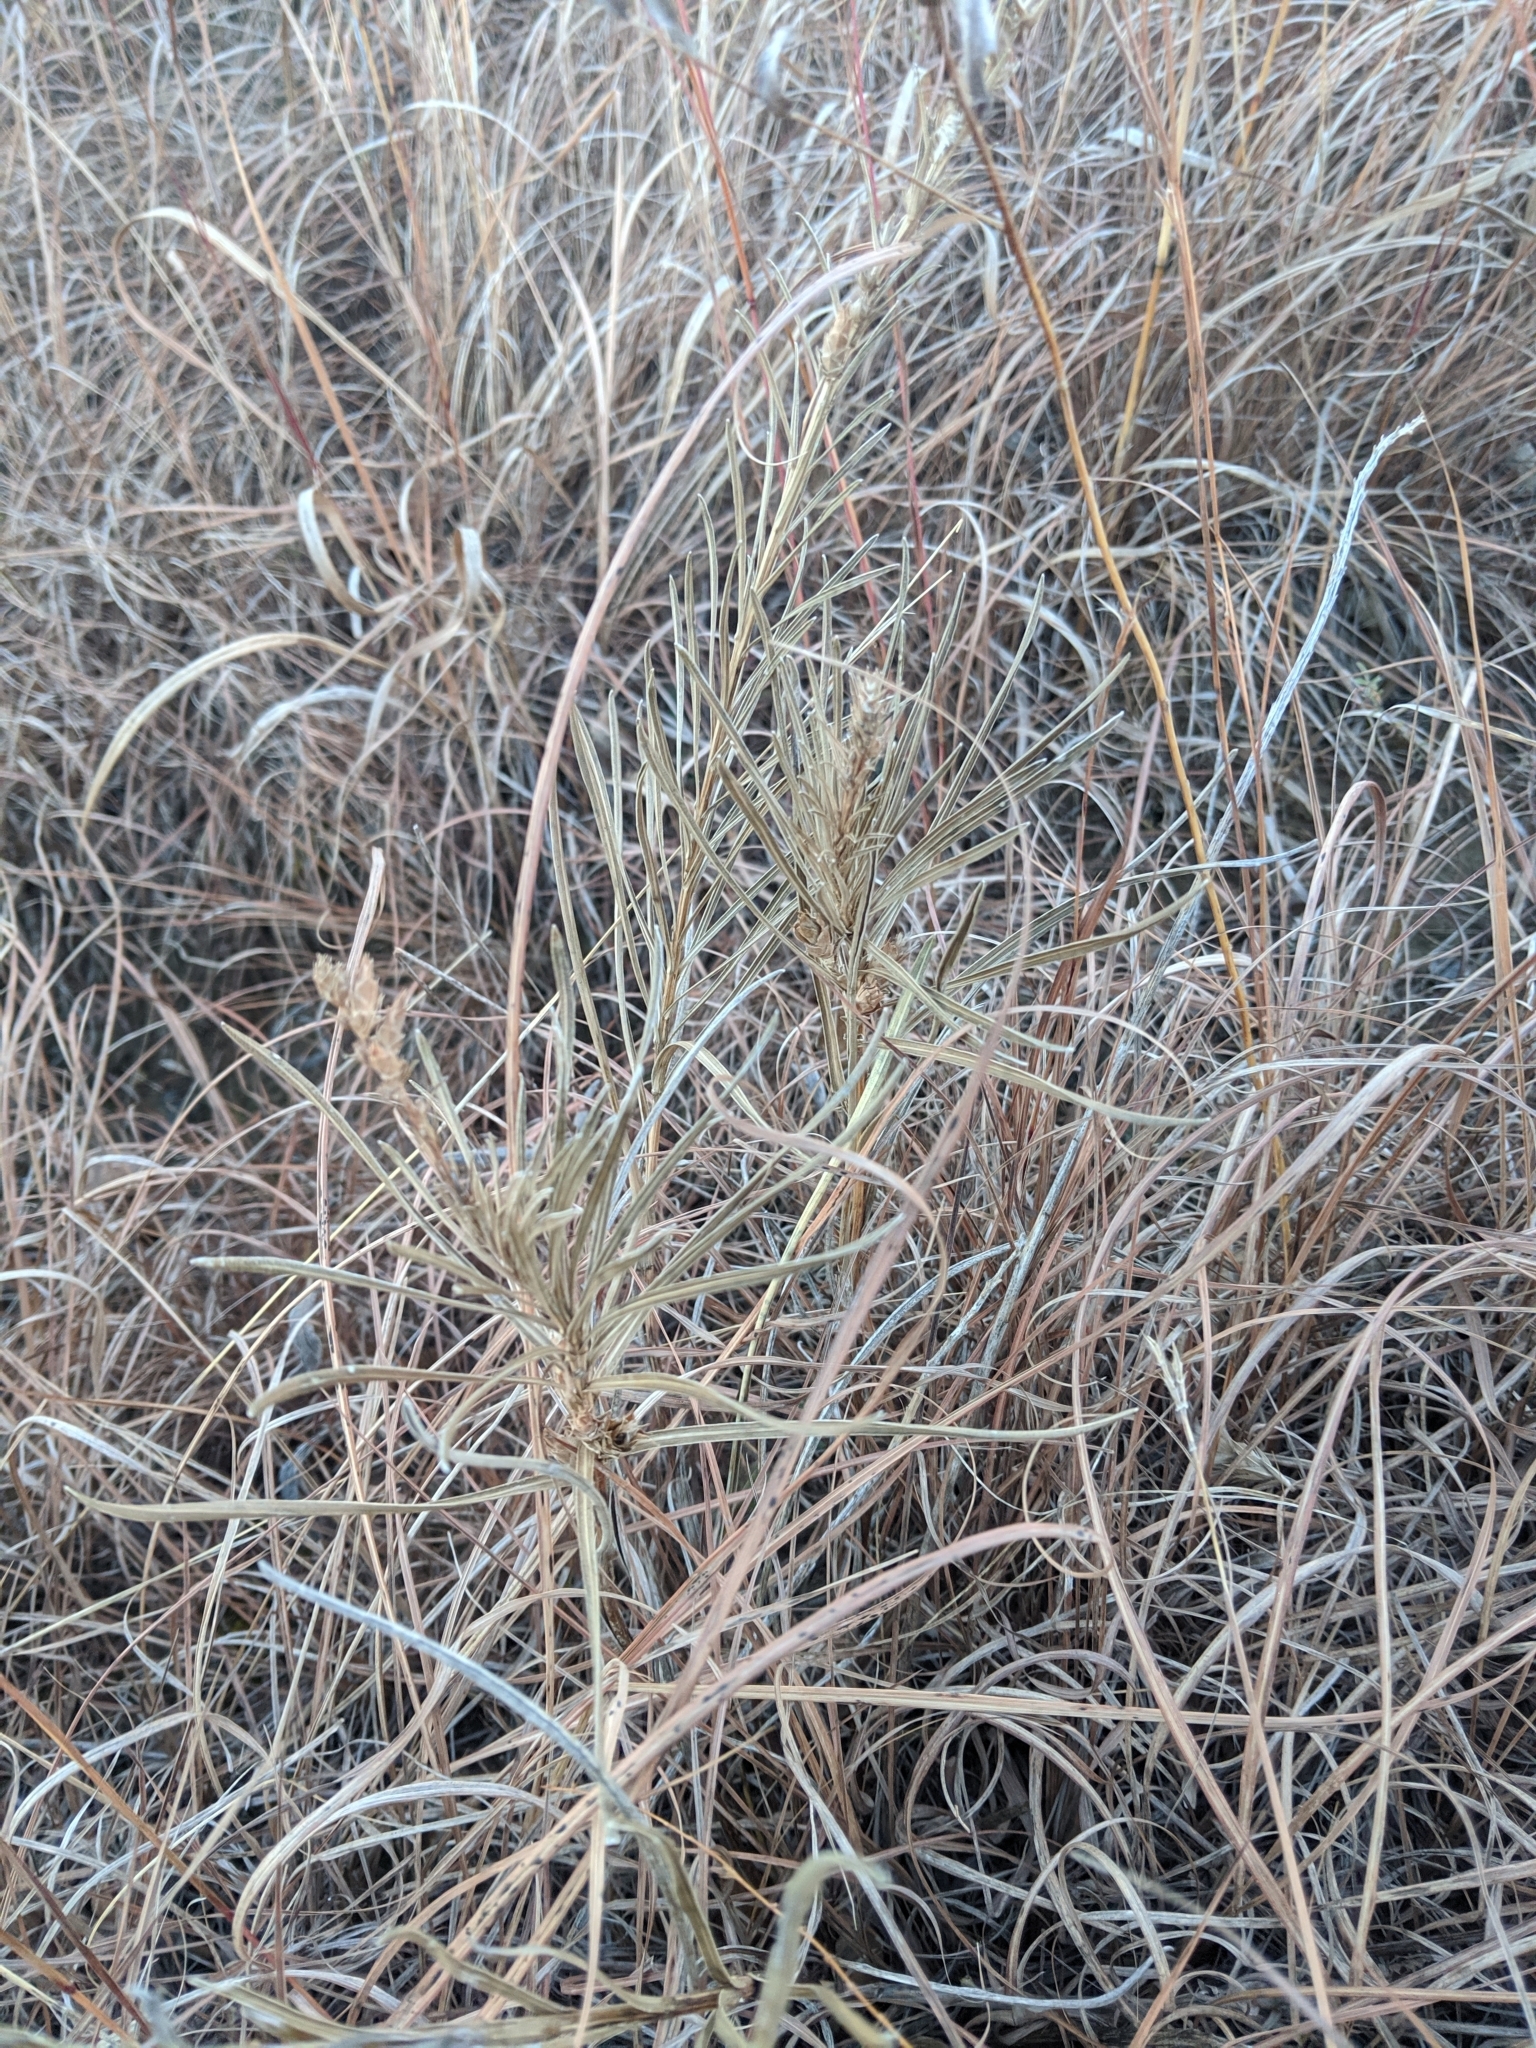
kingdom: Plantae
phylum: Tracheophyta
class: Magnoliopsida
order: Asterales
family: Asteraceae
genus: Liatris
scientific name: Liatris punctata
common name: Dotted gayfeather
